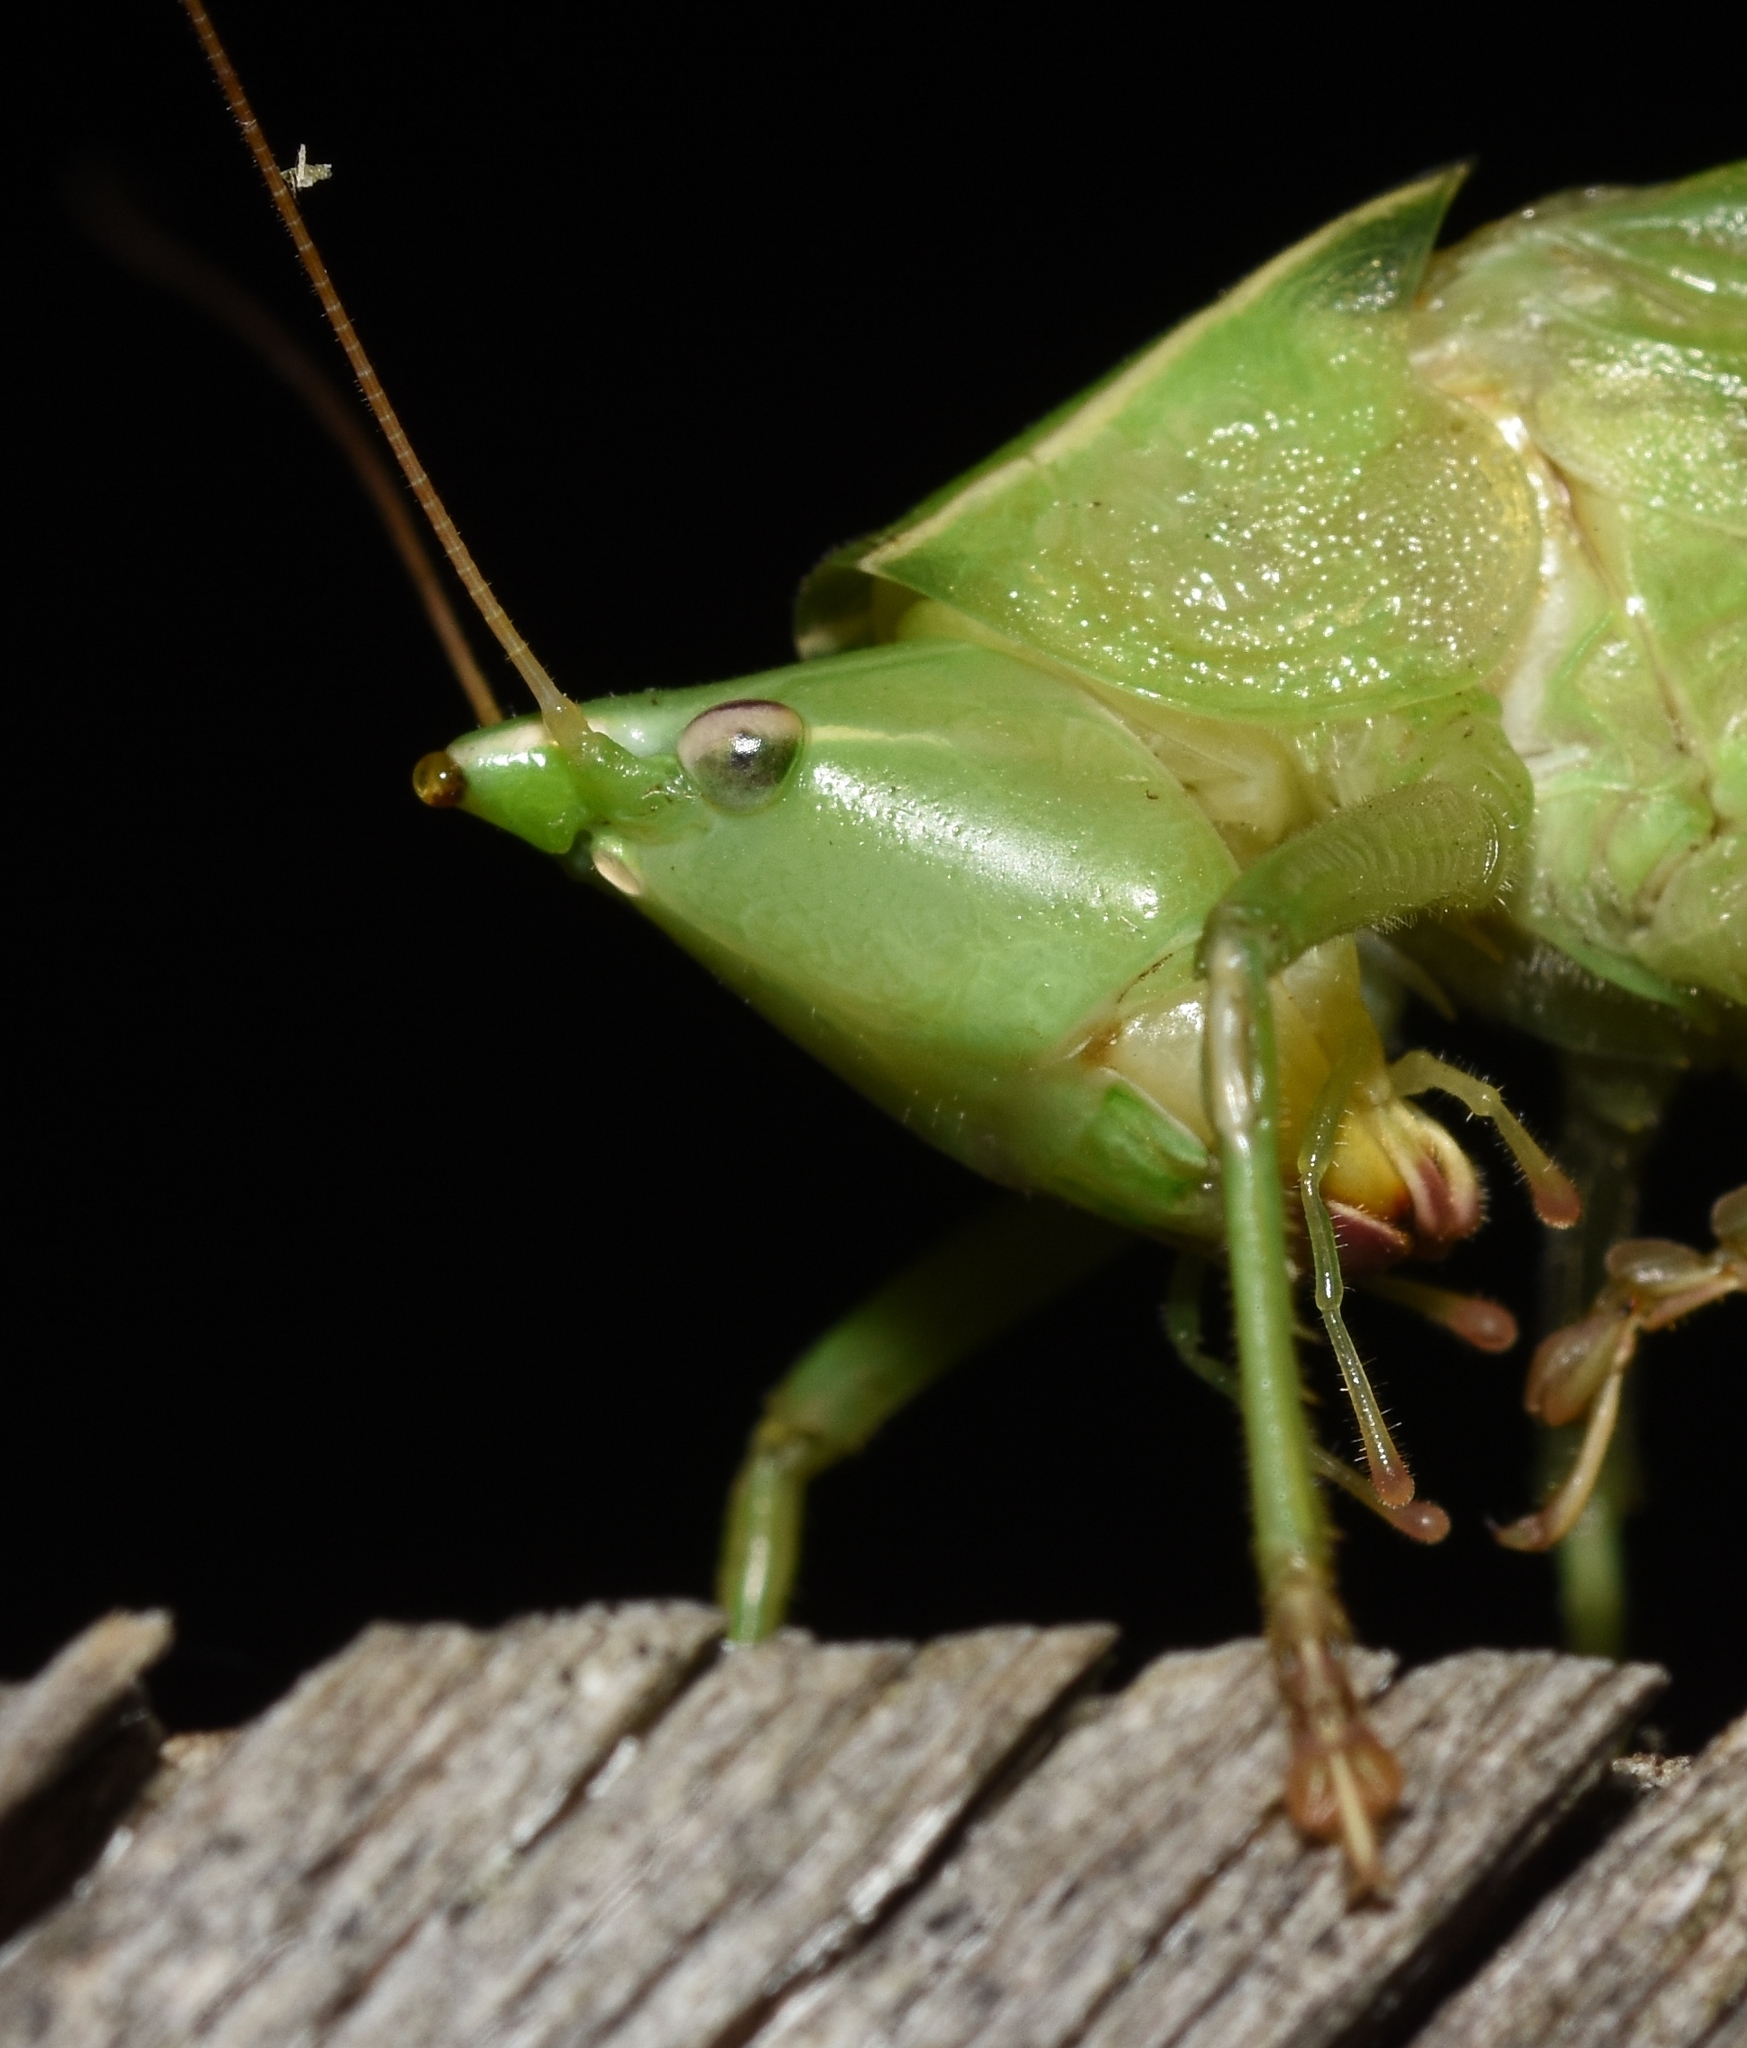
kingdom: Animalia
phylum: Arthropoda
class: Insecta
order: Orthoptera
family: Tettigoniidae
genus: Neoconocephalus
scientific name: Neoconocephalus retusus
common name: Round-tipped conehead
